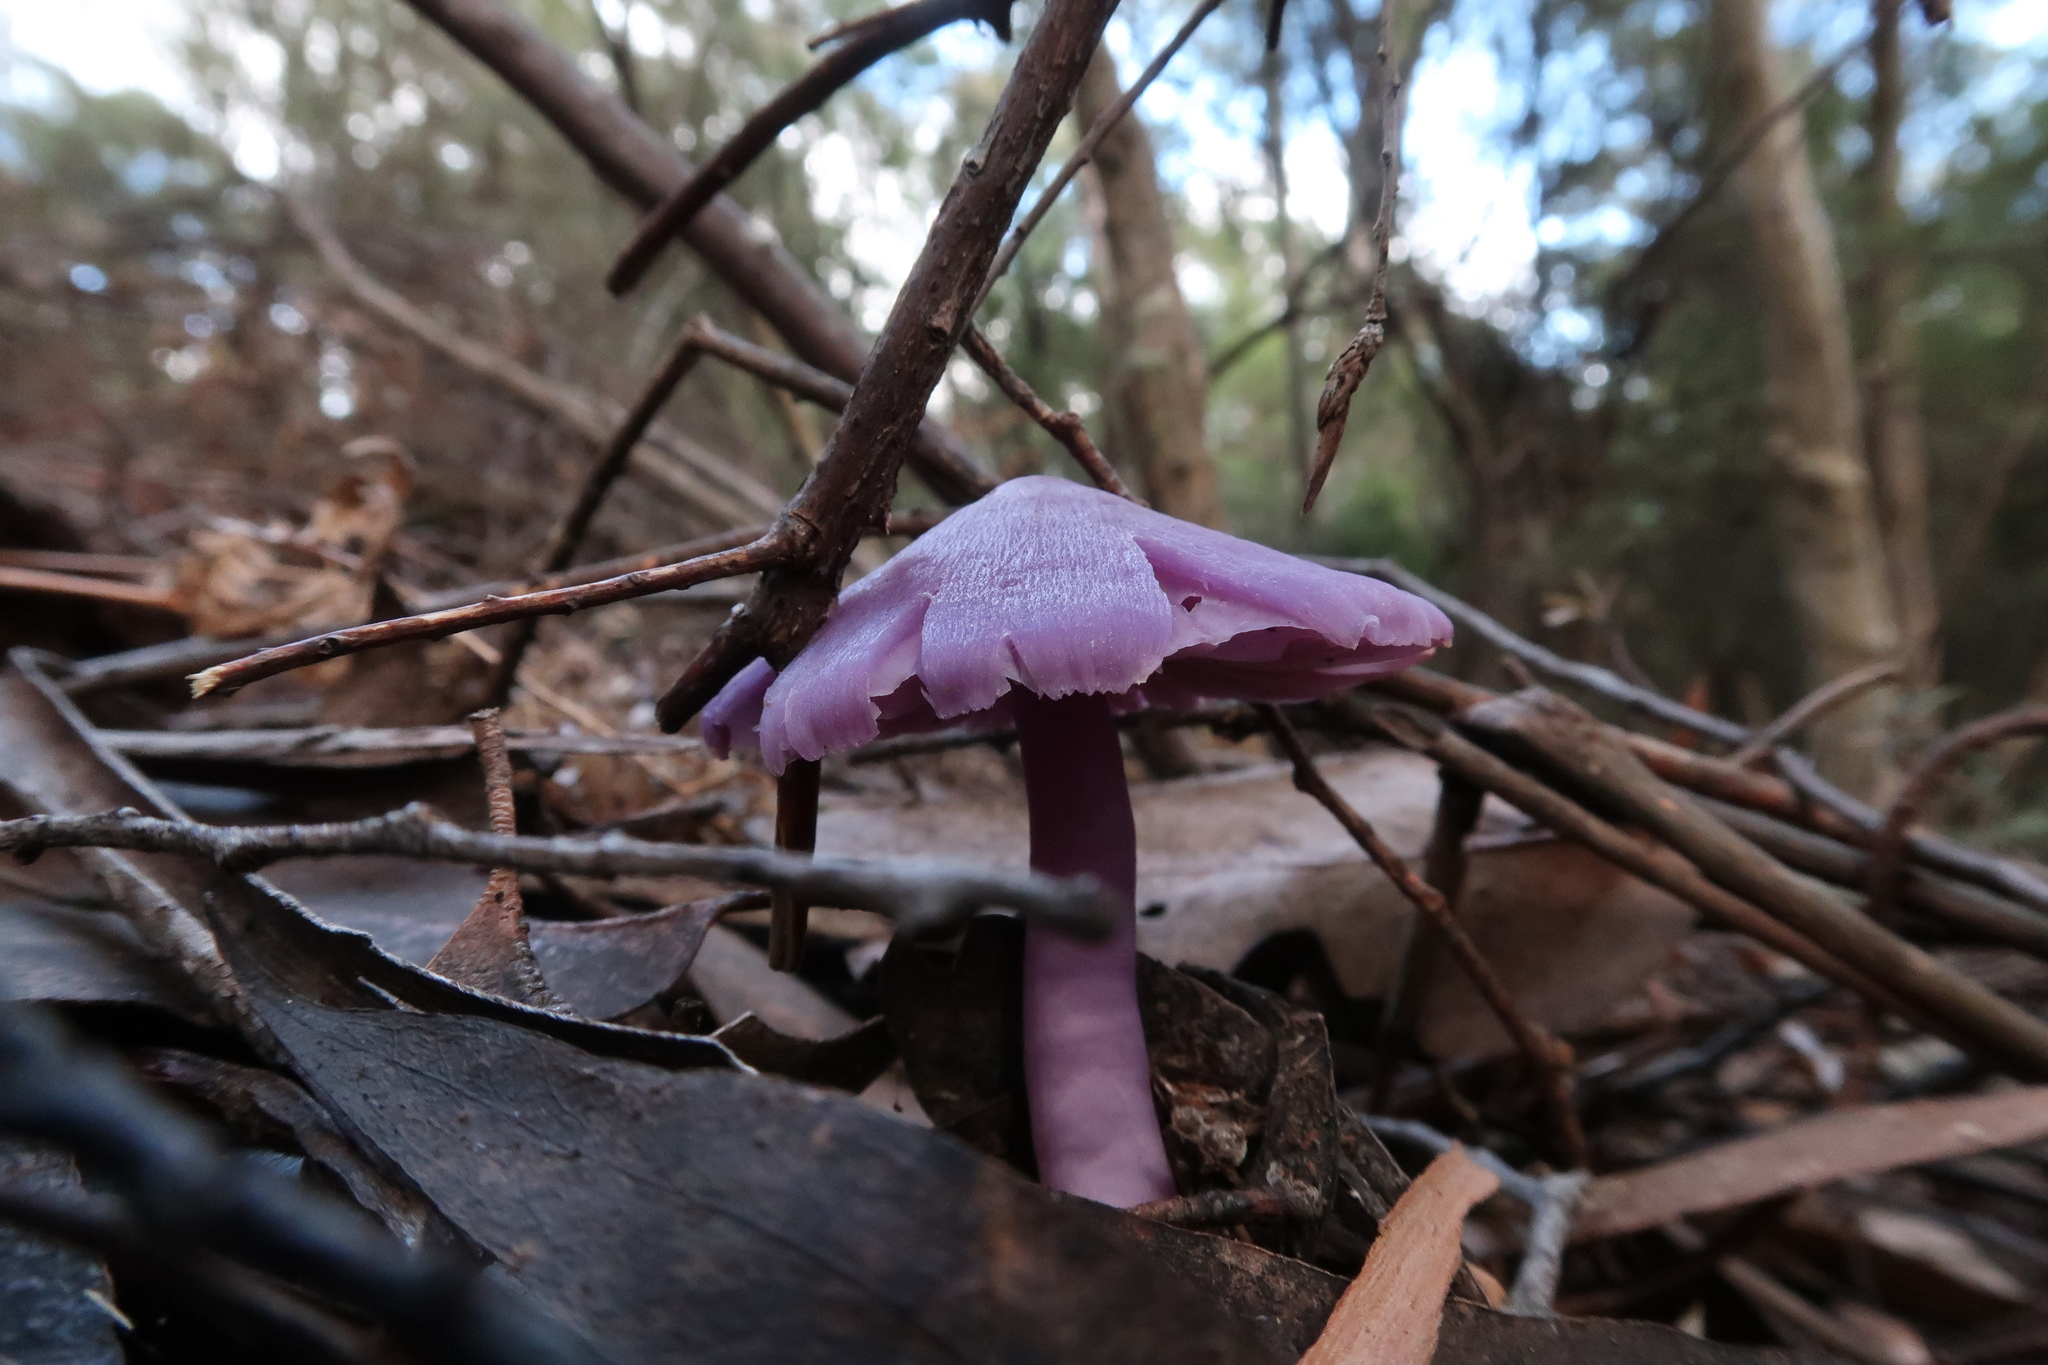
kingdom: Fungi
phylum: Basidiomycota
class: Agaricomycetes
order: Agaricales
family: Hygrophoraceae
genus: Porpolomopsis
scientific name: Porpolomopsis lewelliniae
